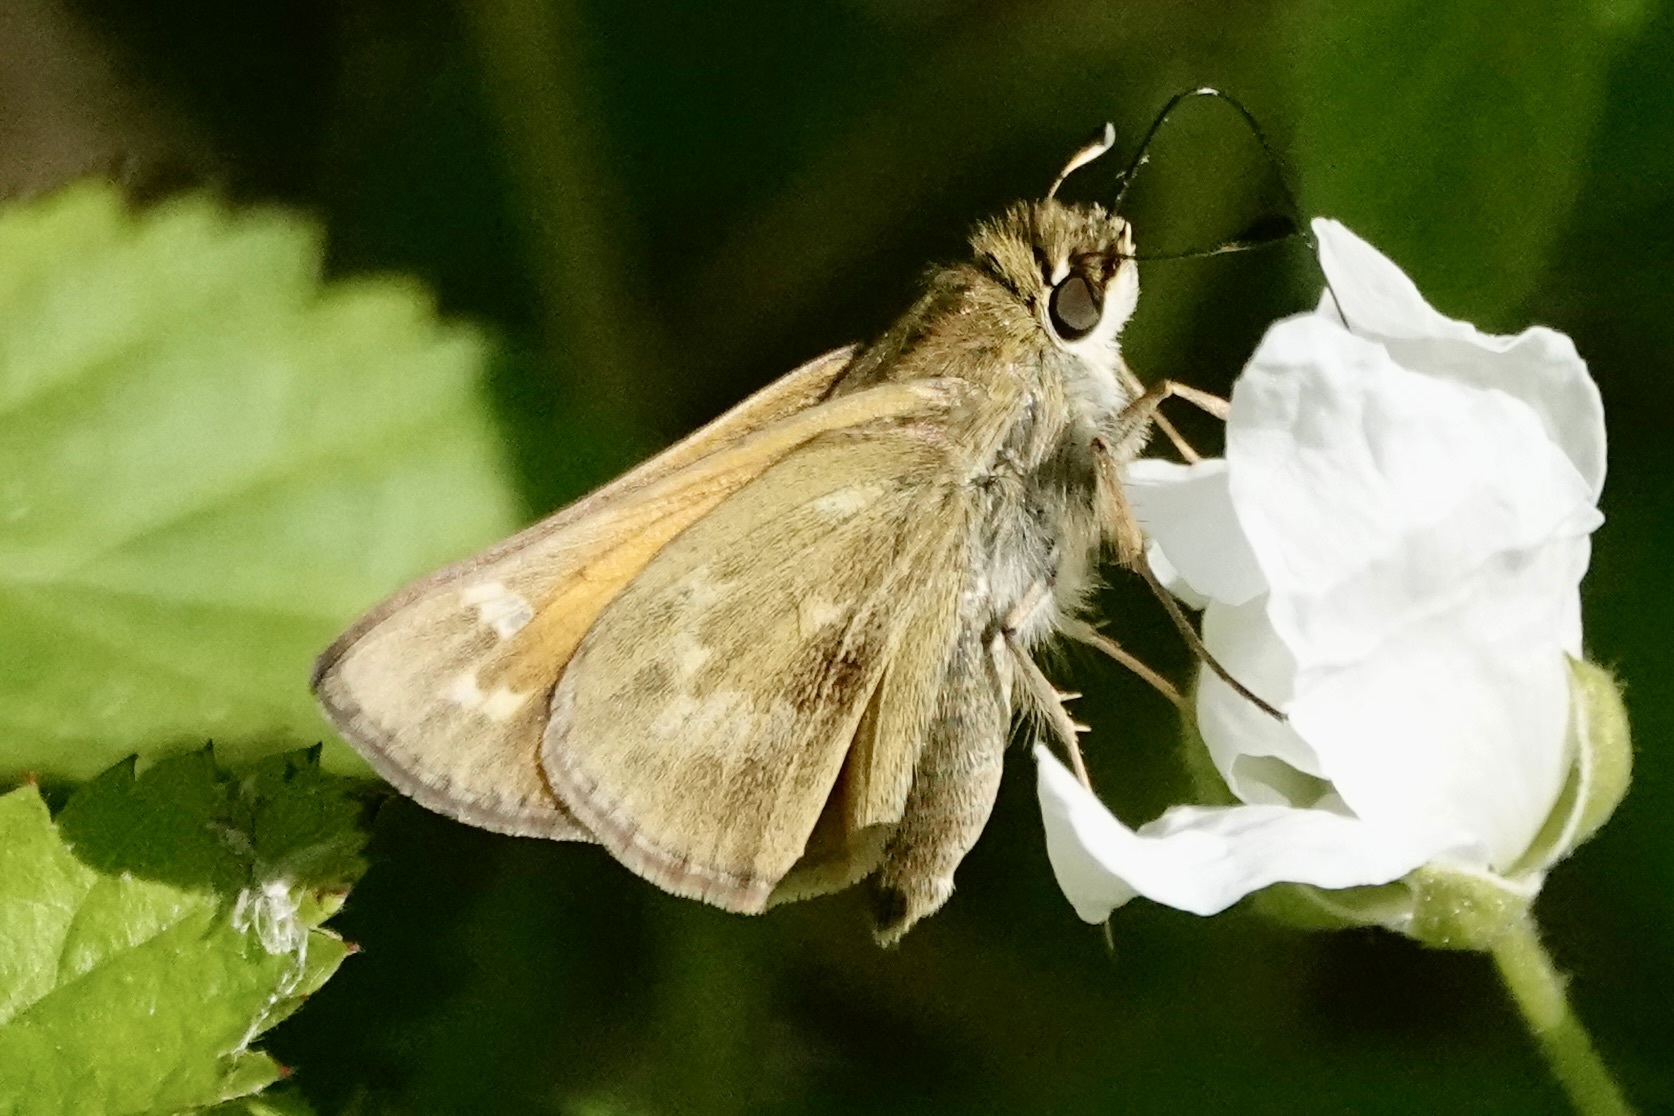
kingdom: Animalia
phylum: Arthropoda
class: Insecta
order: Lepidoptera
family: Hesperiidae
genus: Atalopedes
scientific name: Atalopedes
